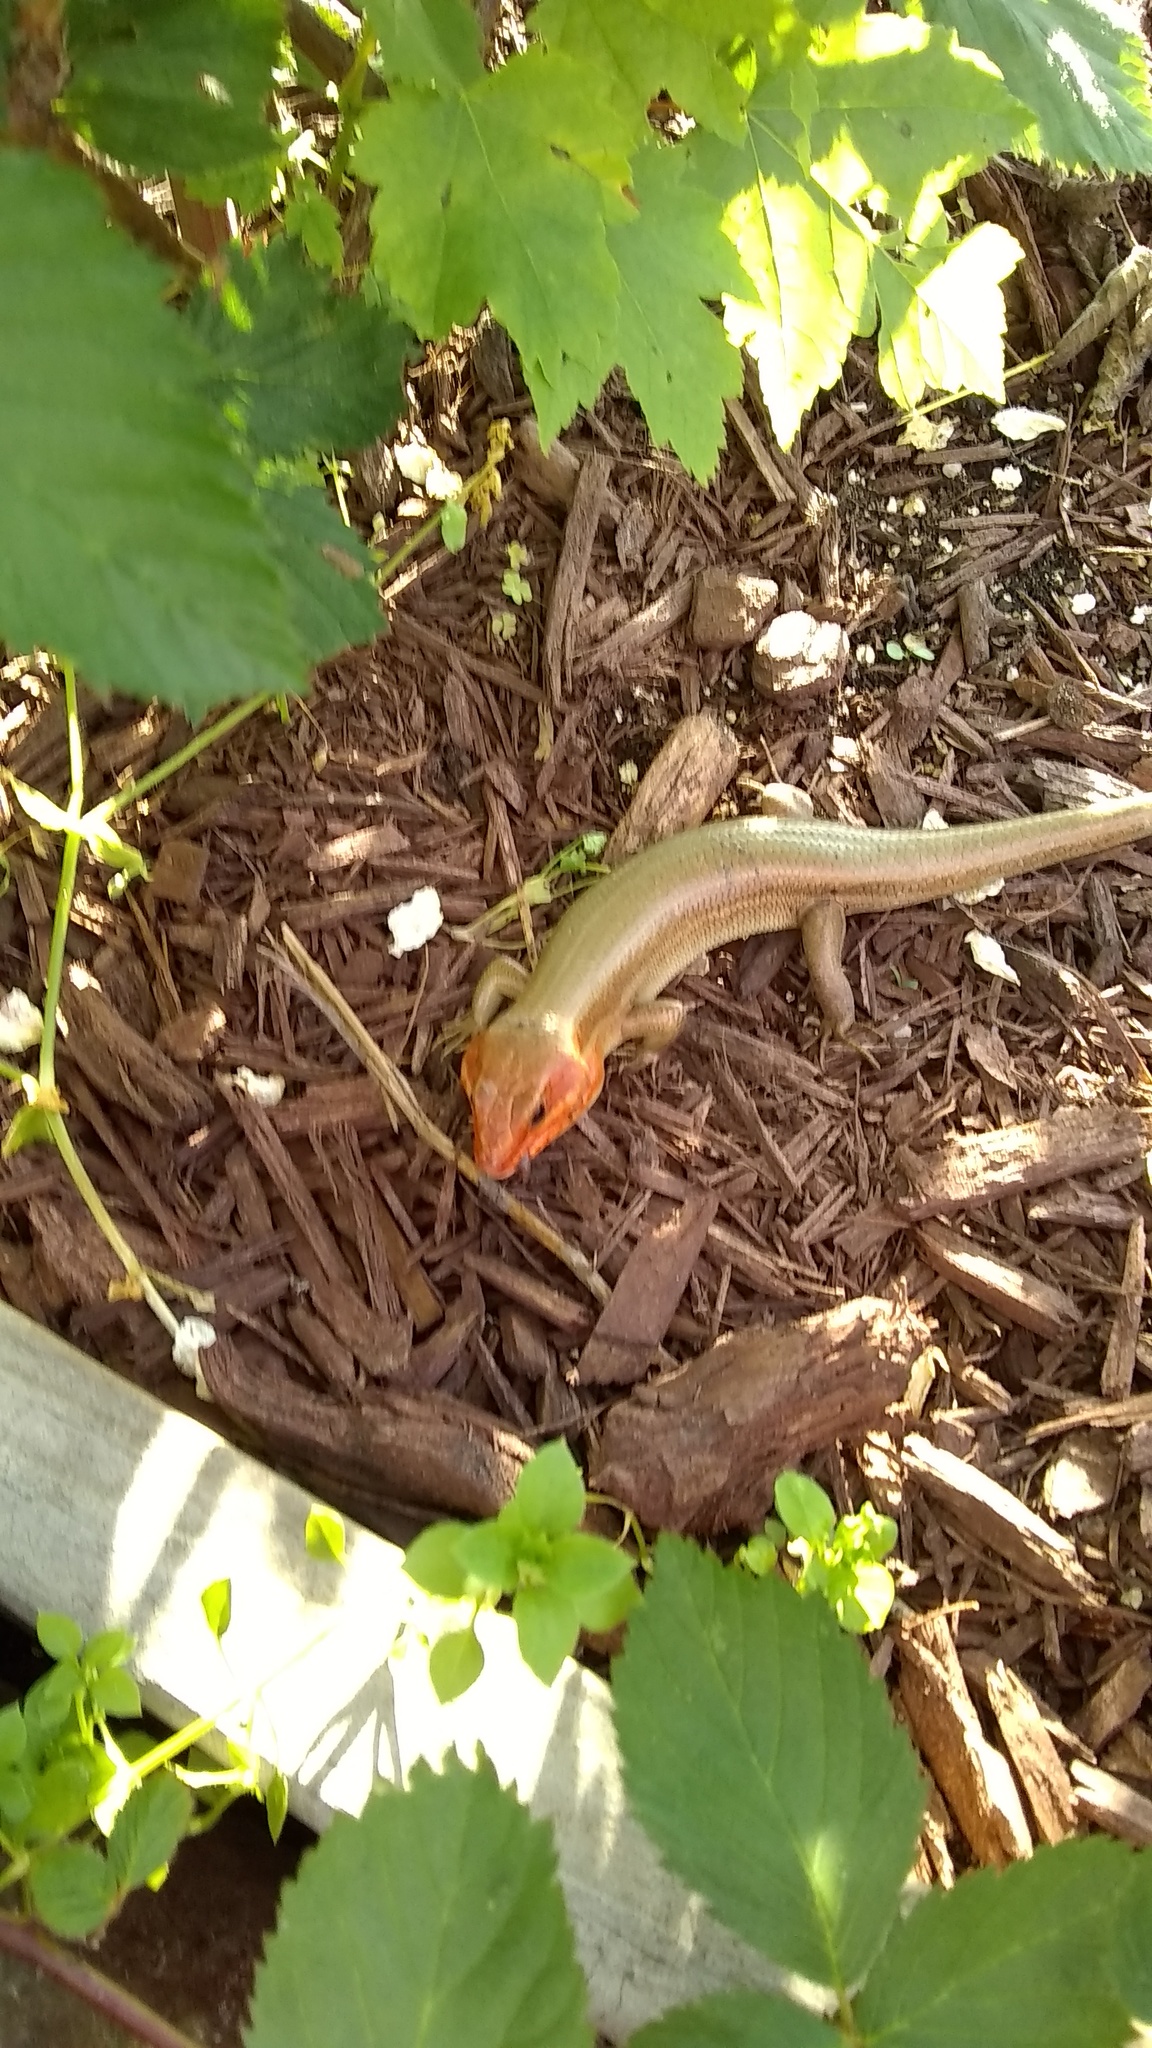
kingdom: Animalia
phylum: Chordata
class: Squamata
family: Scincidae
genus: Plestiodon
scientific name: Plestiodon laticeps
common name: Broadhead skink
